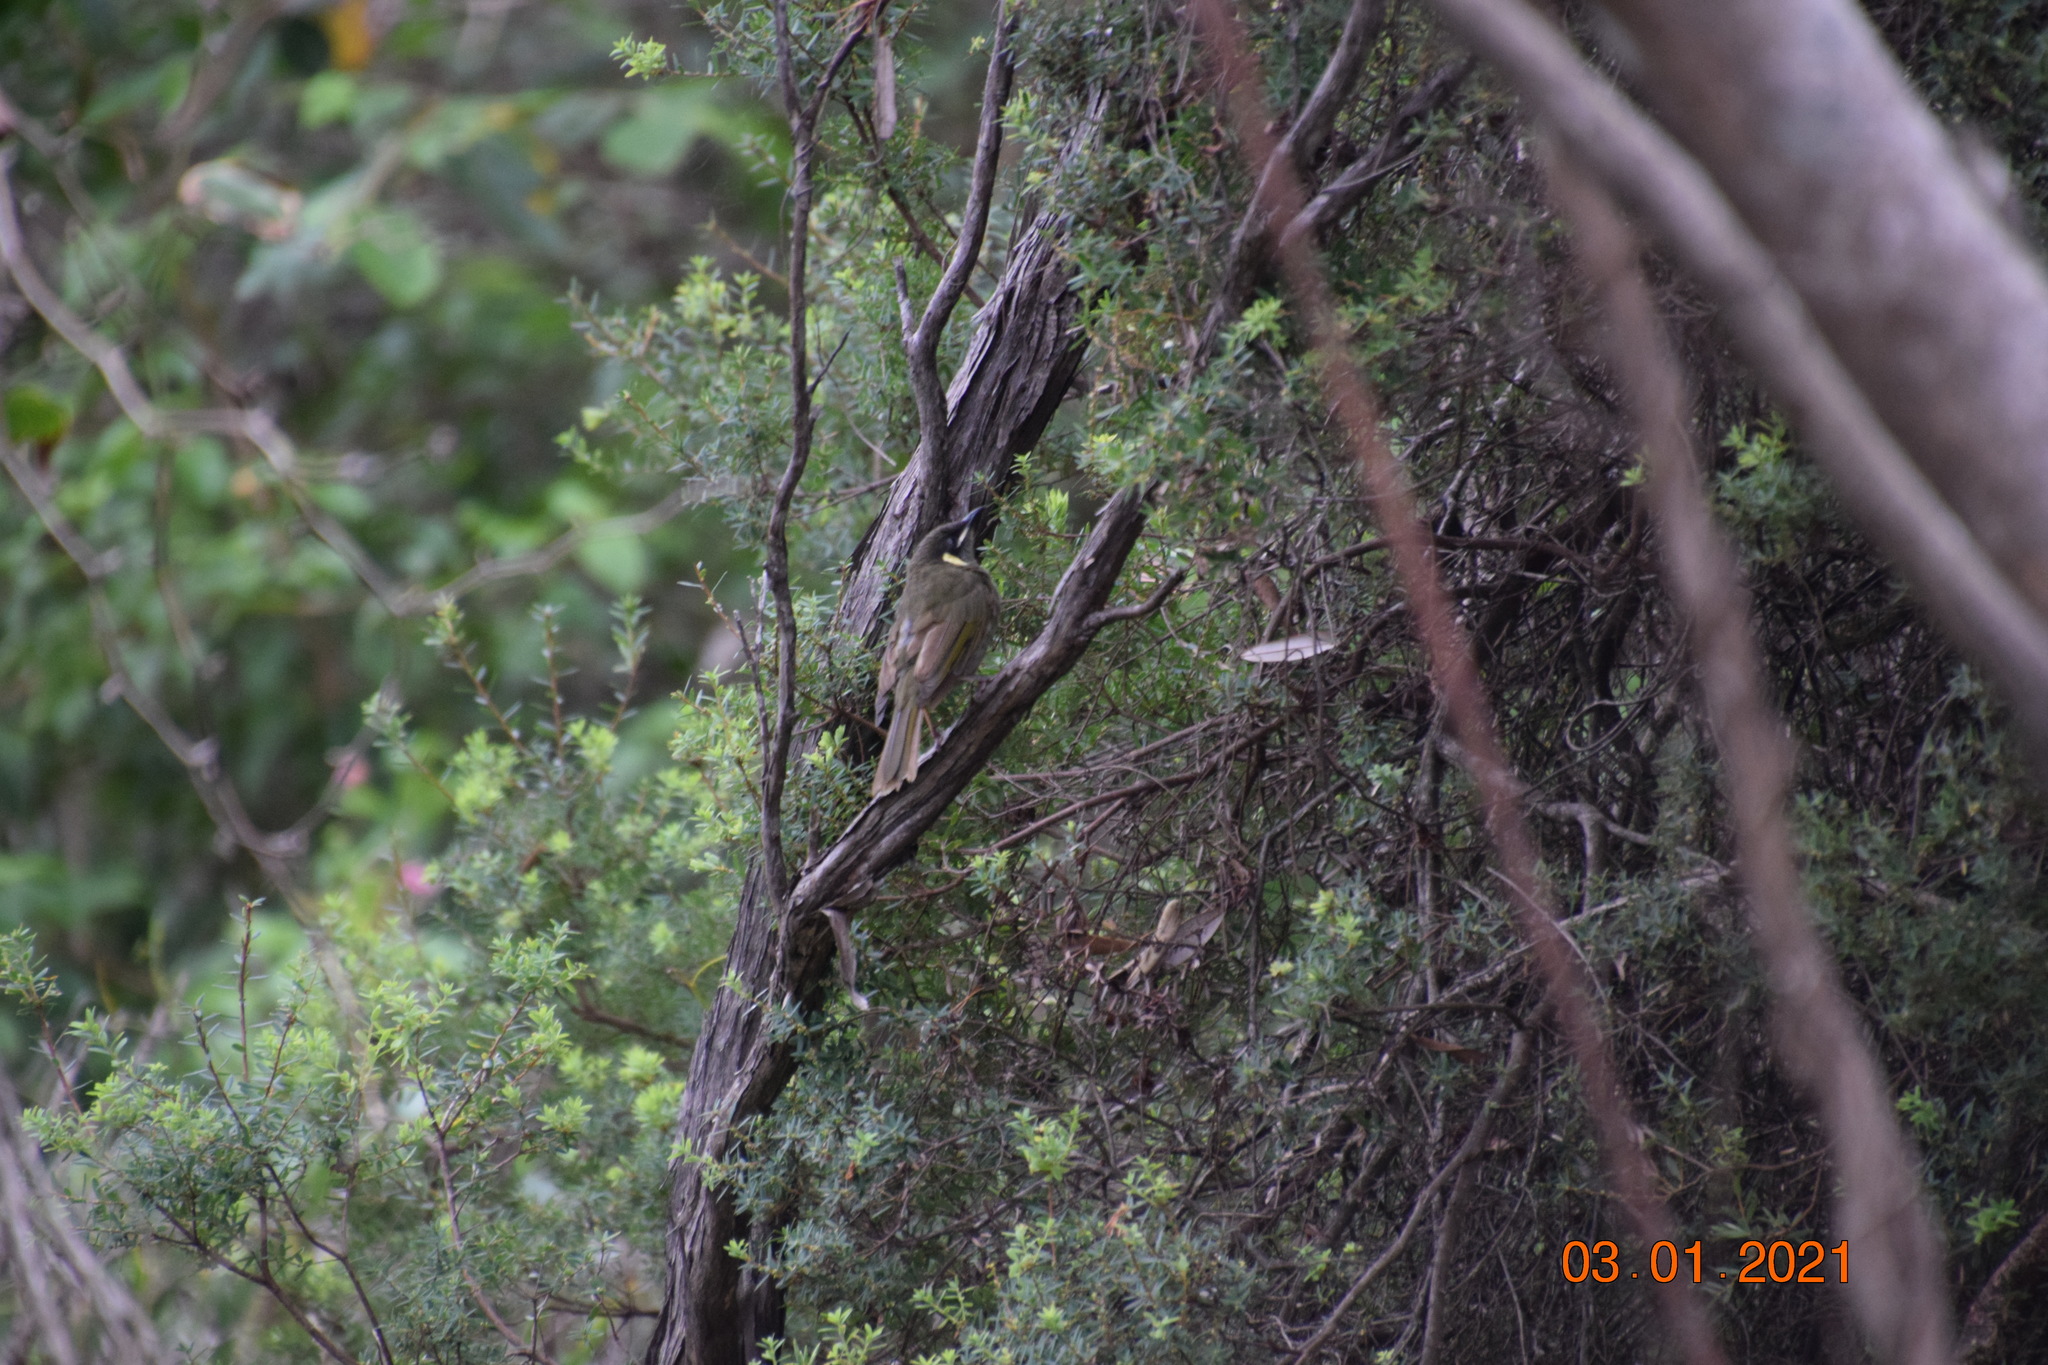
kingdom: Animalia
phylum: Chordata
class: Aves
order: Passeriformes
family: Meliphagidae
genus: Meliphaga
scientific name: Meliphaga lewinii
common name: Lewin's honeyeater
